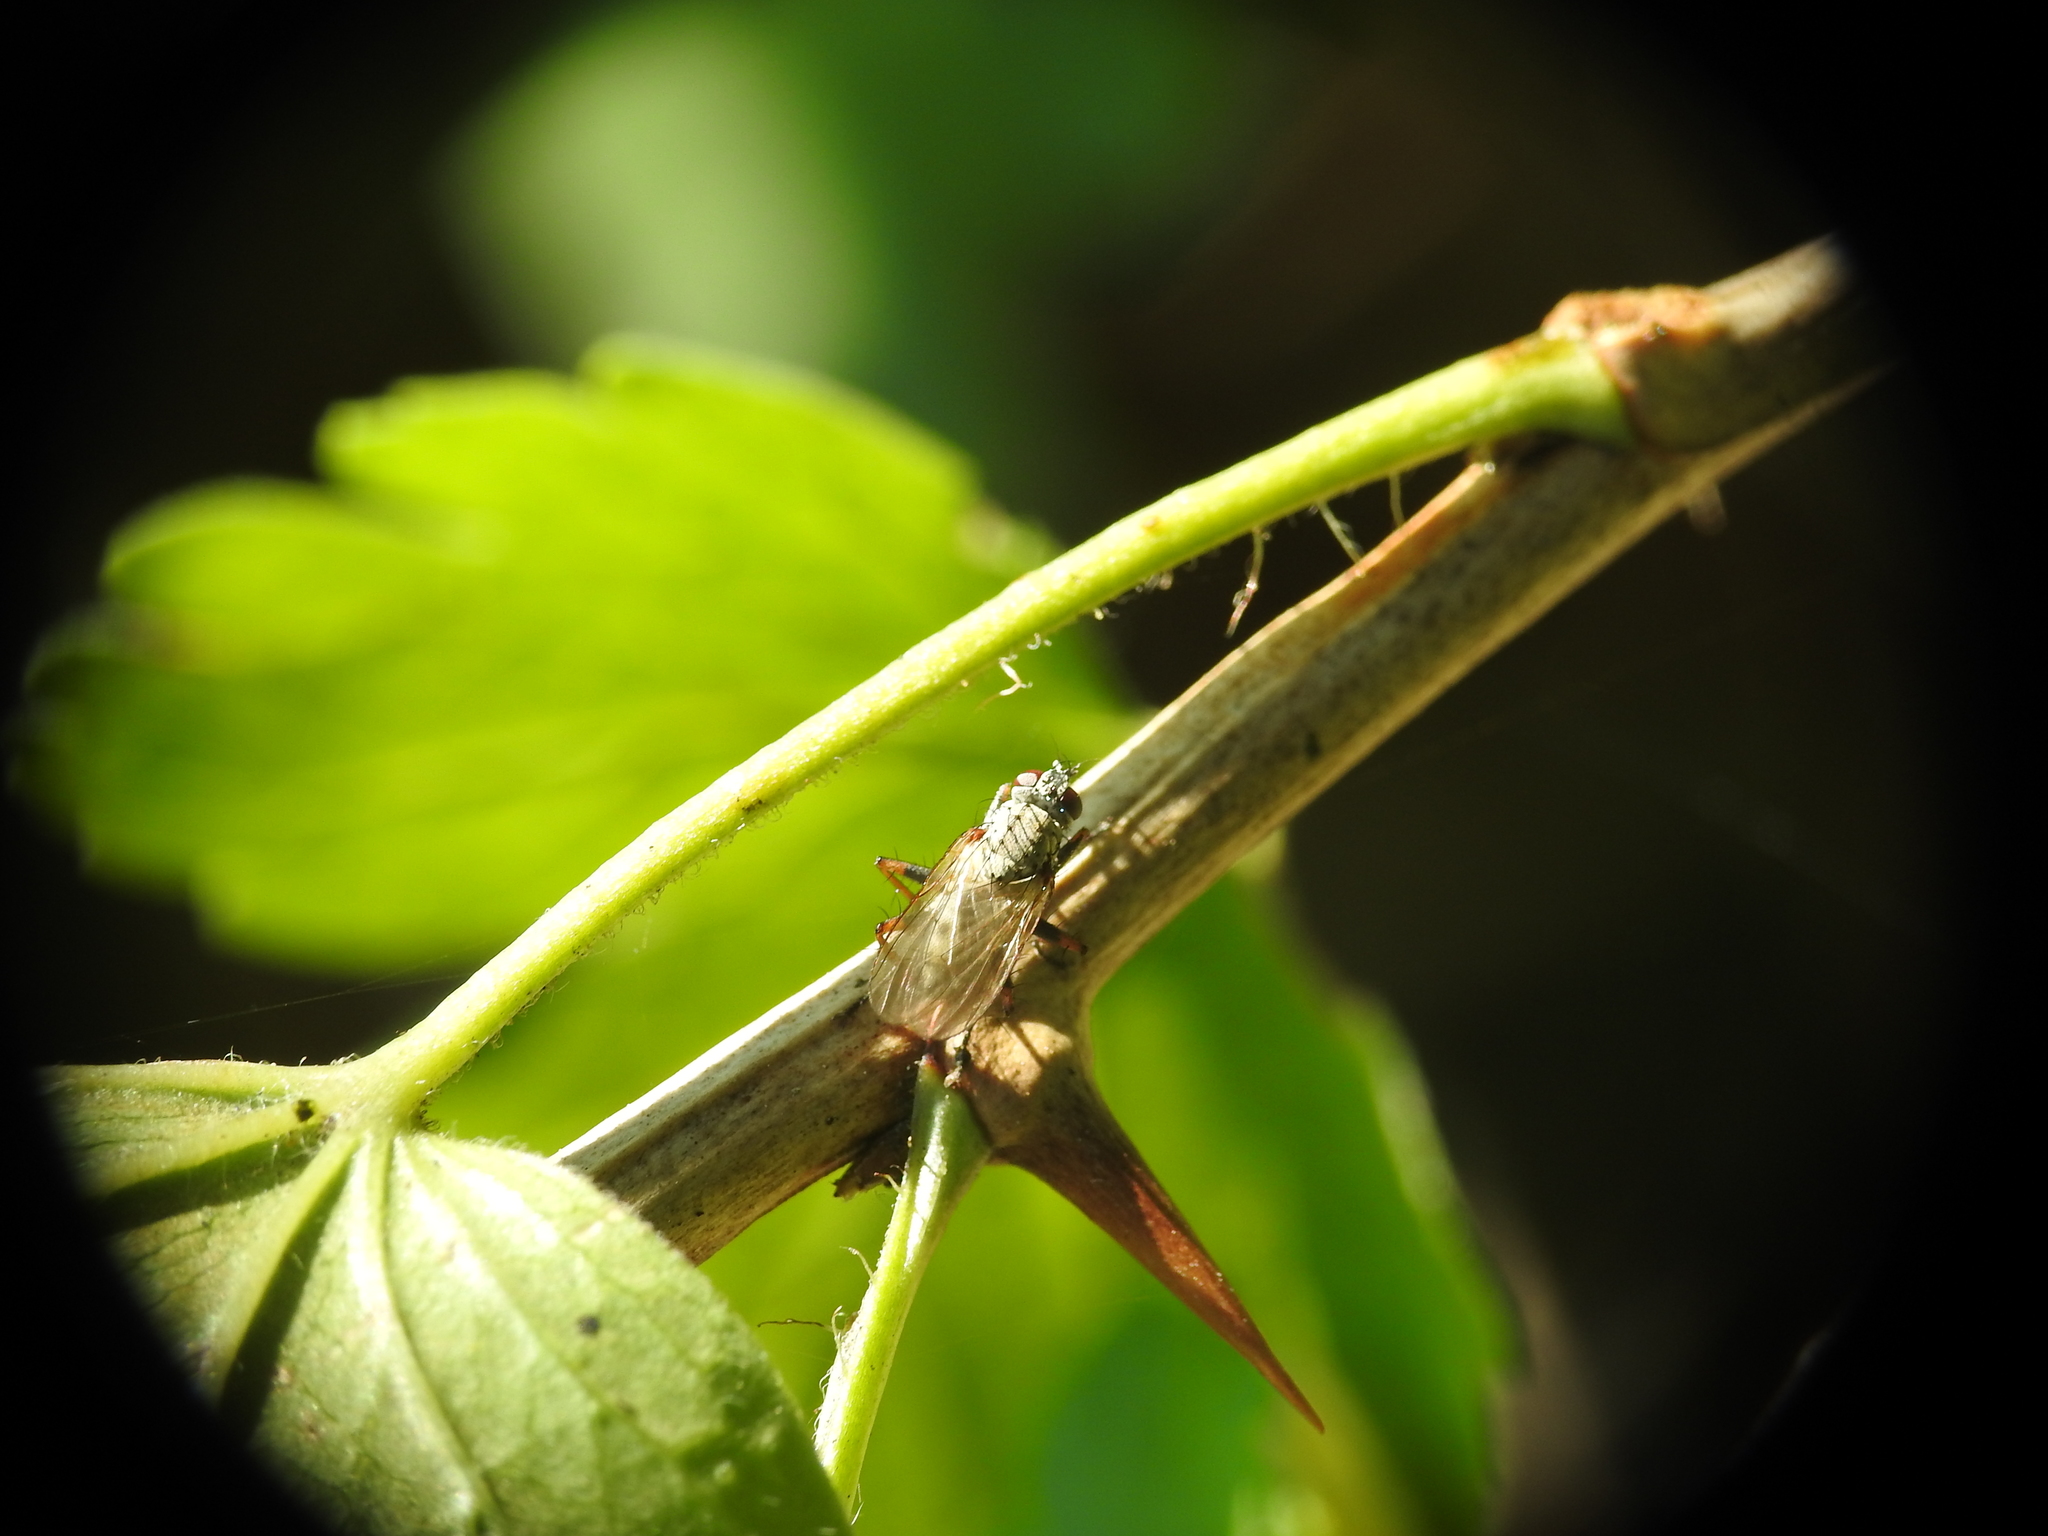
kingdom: Animalia
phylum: Arthropoda
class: Insecta
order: Diptera
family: Muscidae
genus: Coenosia
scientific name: Coenosia tigrina
